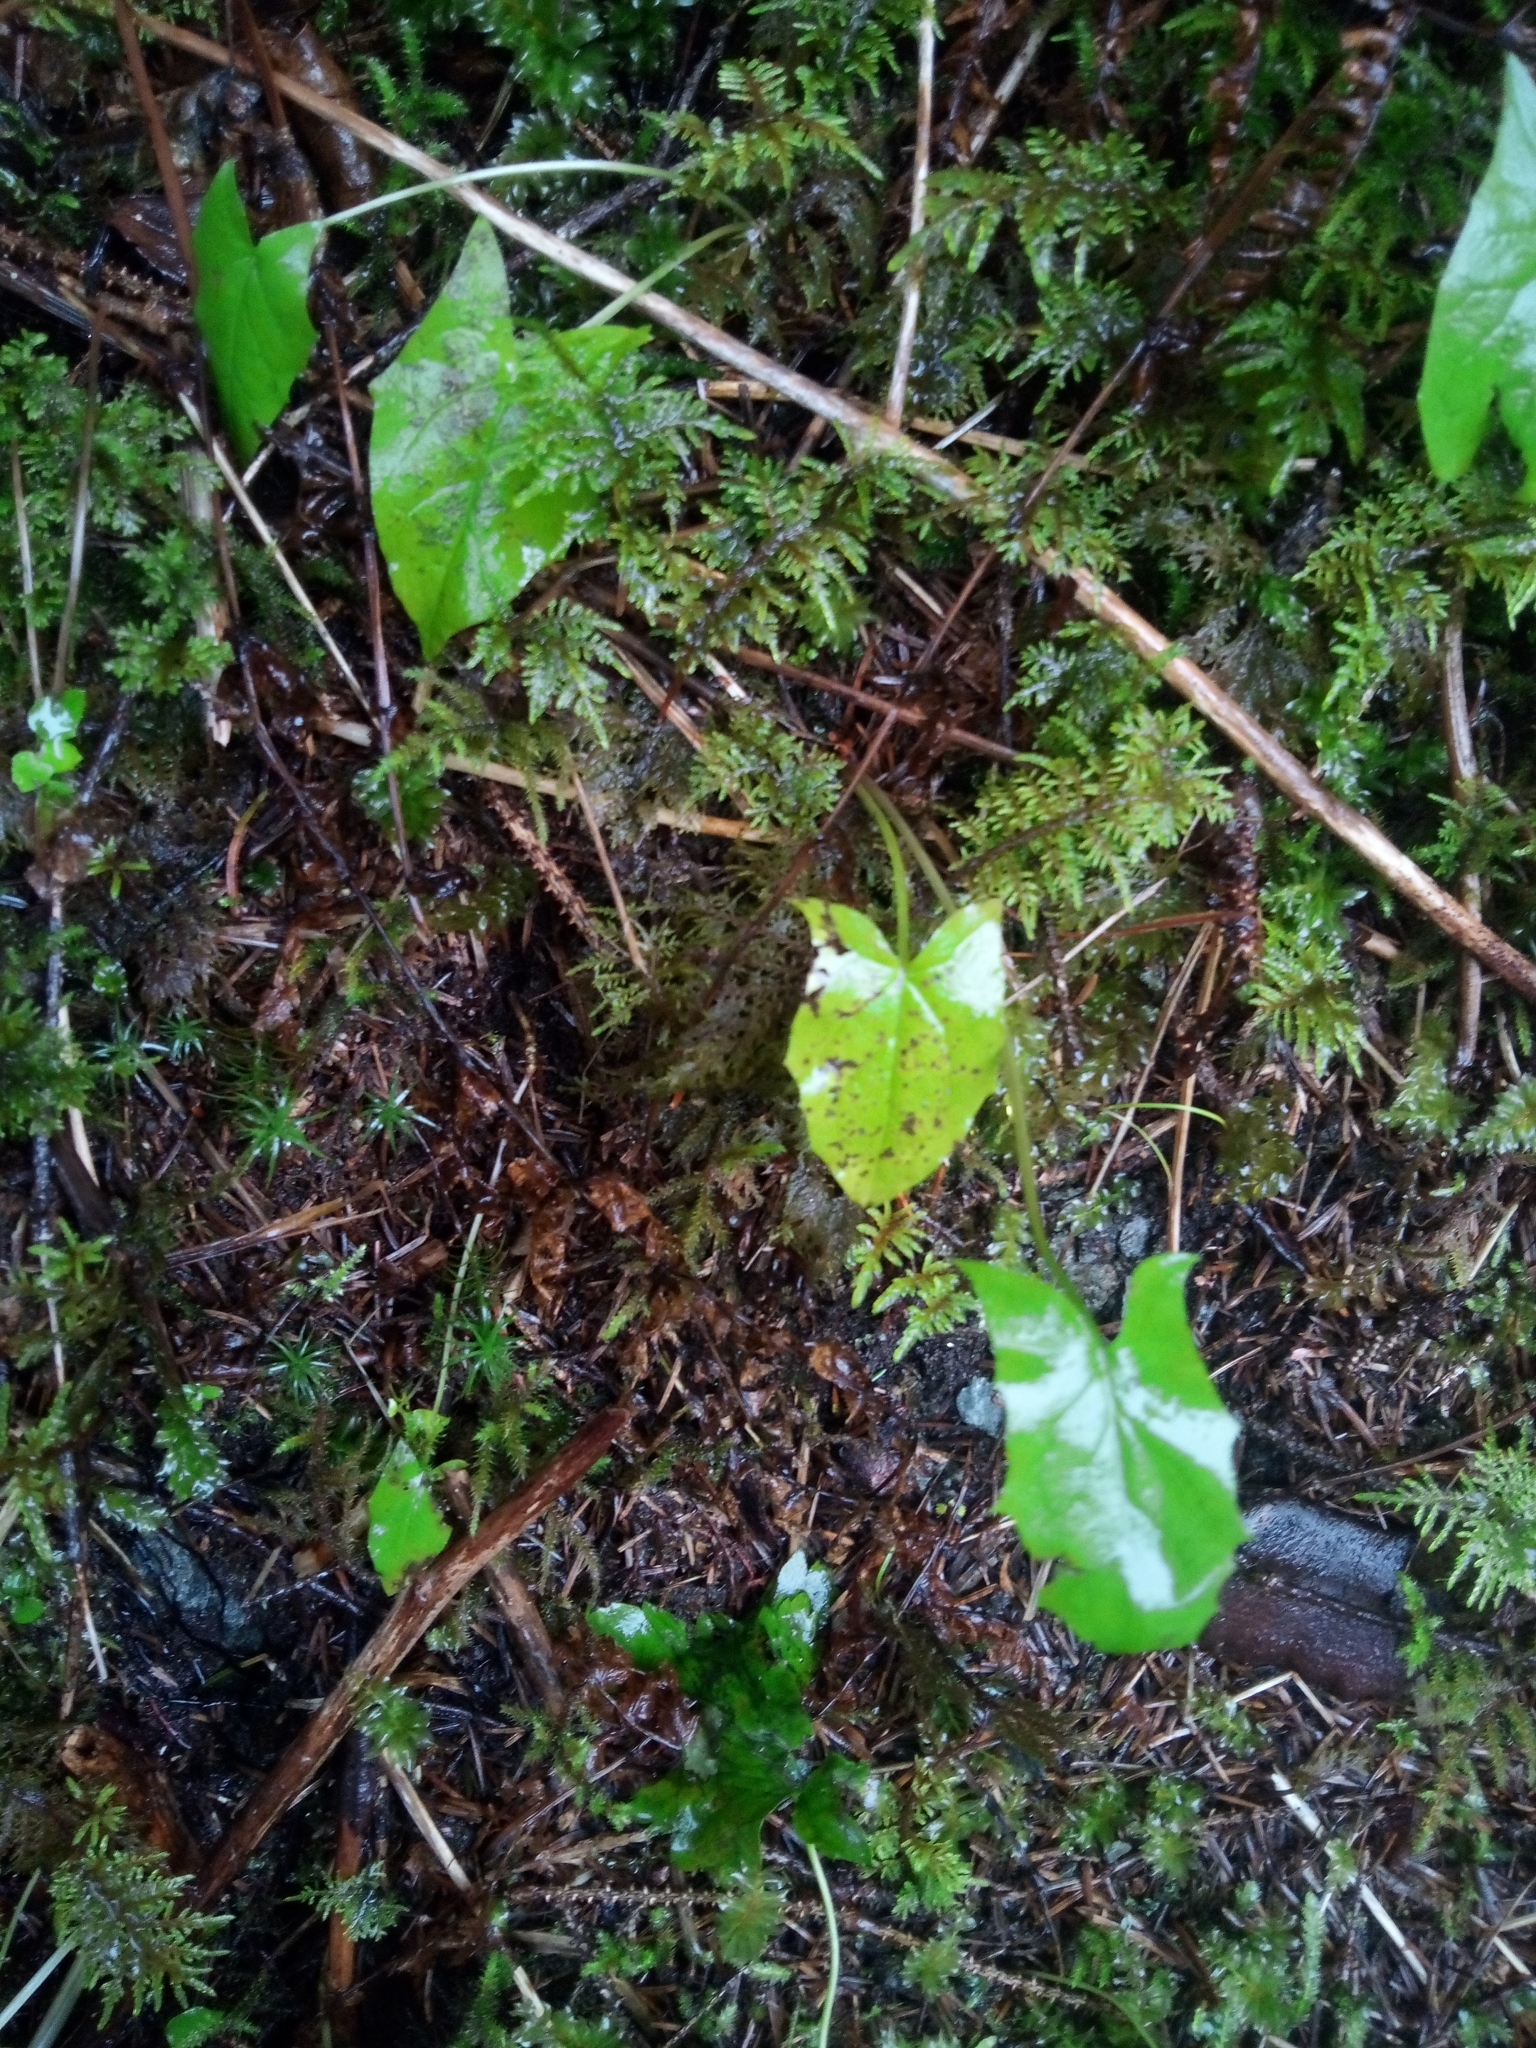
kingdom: Plantae
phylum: Tracheophyta
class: Magnoliopsida
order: Asterales
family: Asteraceae
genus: Nabalus
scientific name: Nabalus hastatus
